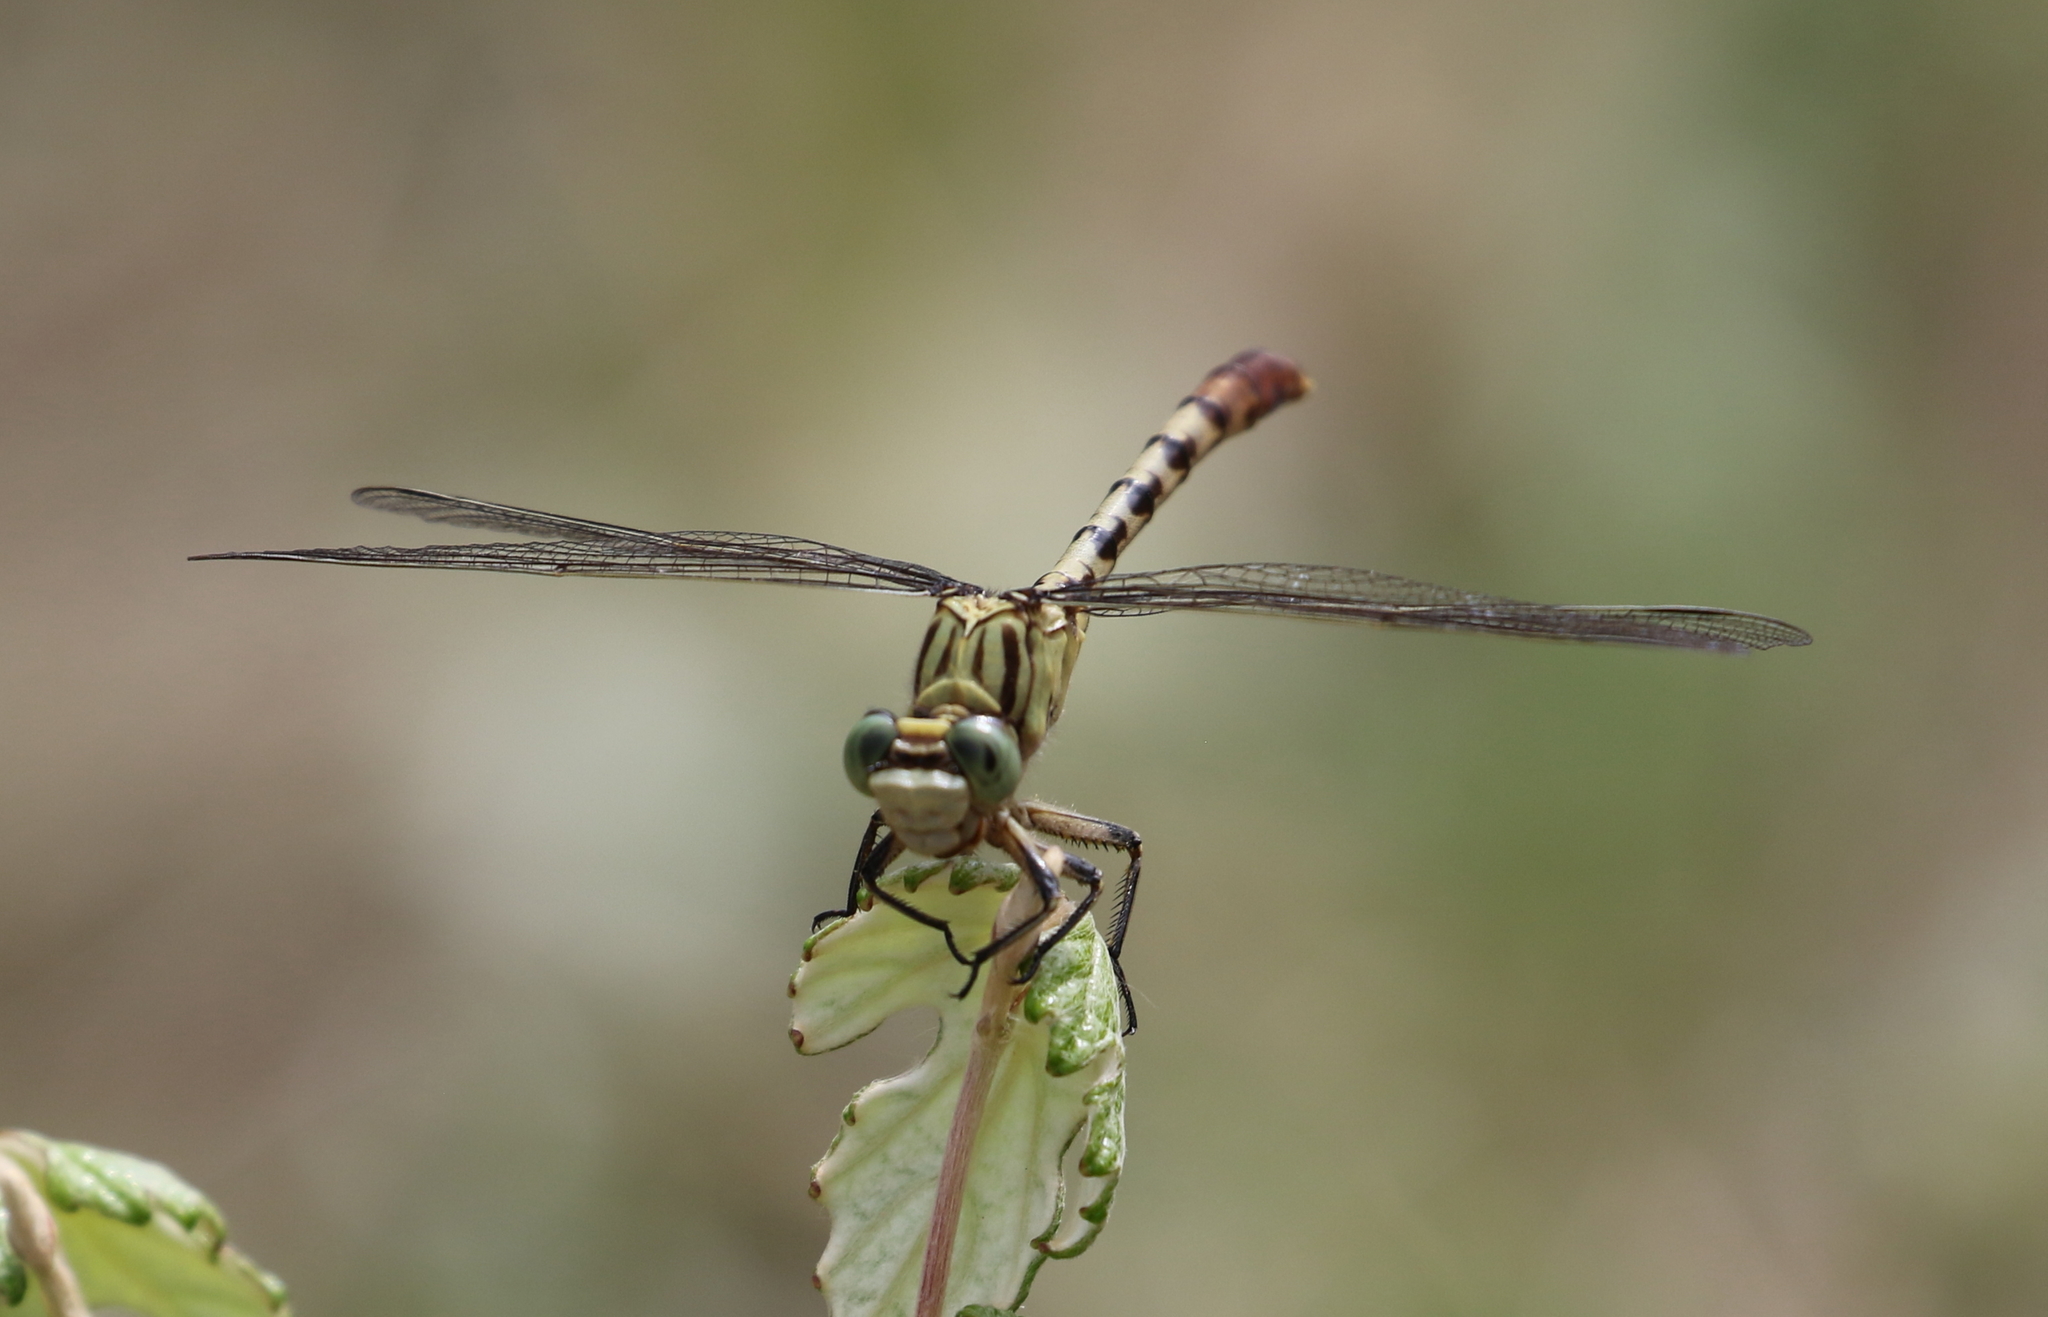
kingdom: Animalia
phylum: Arthropoda
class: Insecta
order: Odonata
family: Gomphidae
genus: Arigomphus
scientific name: Arigomphus submedianus
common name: Jade clubtail
